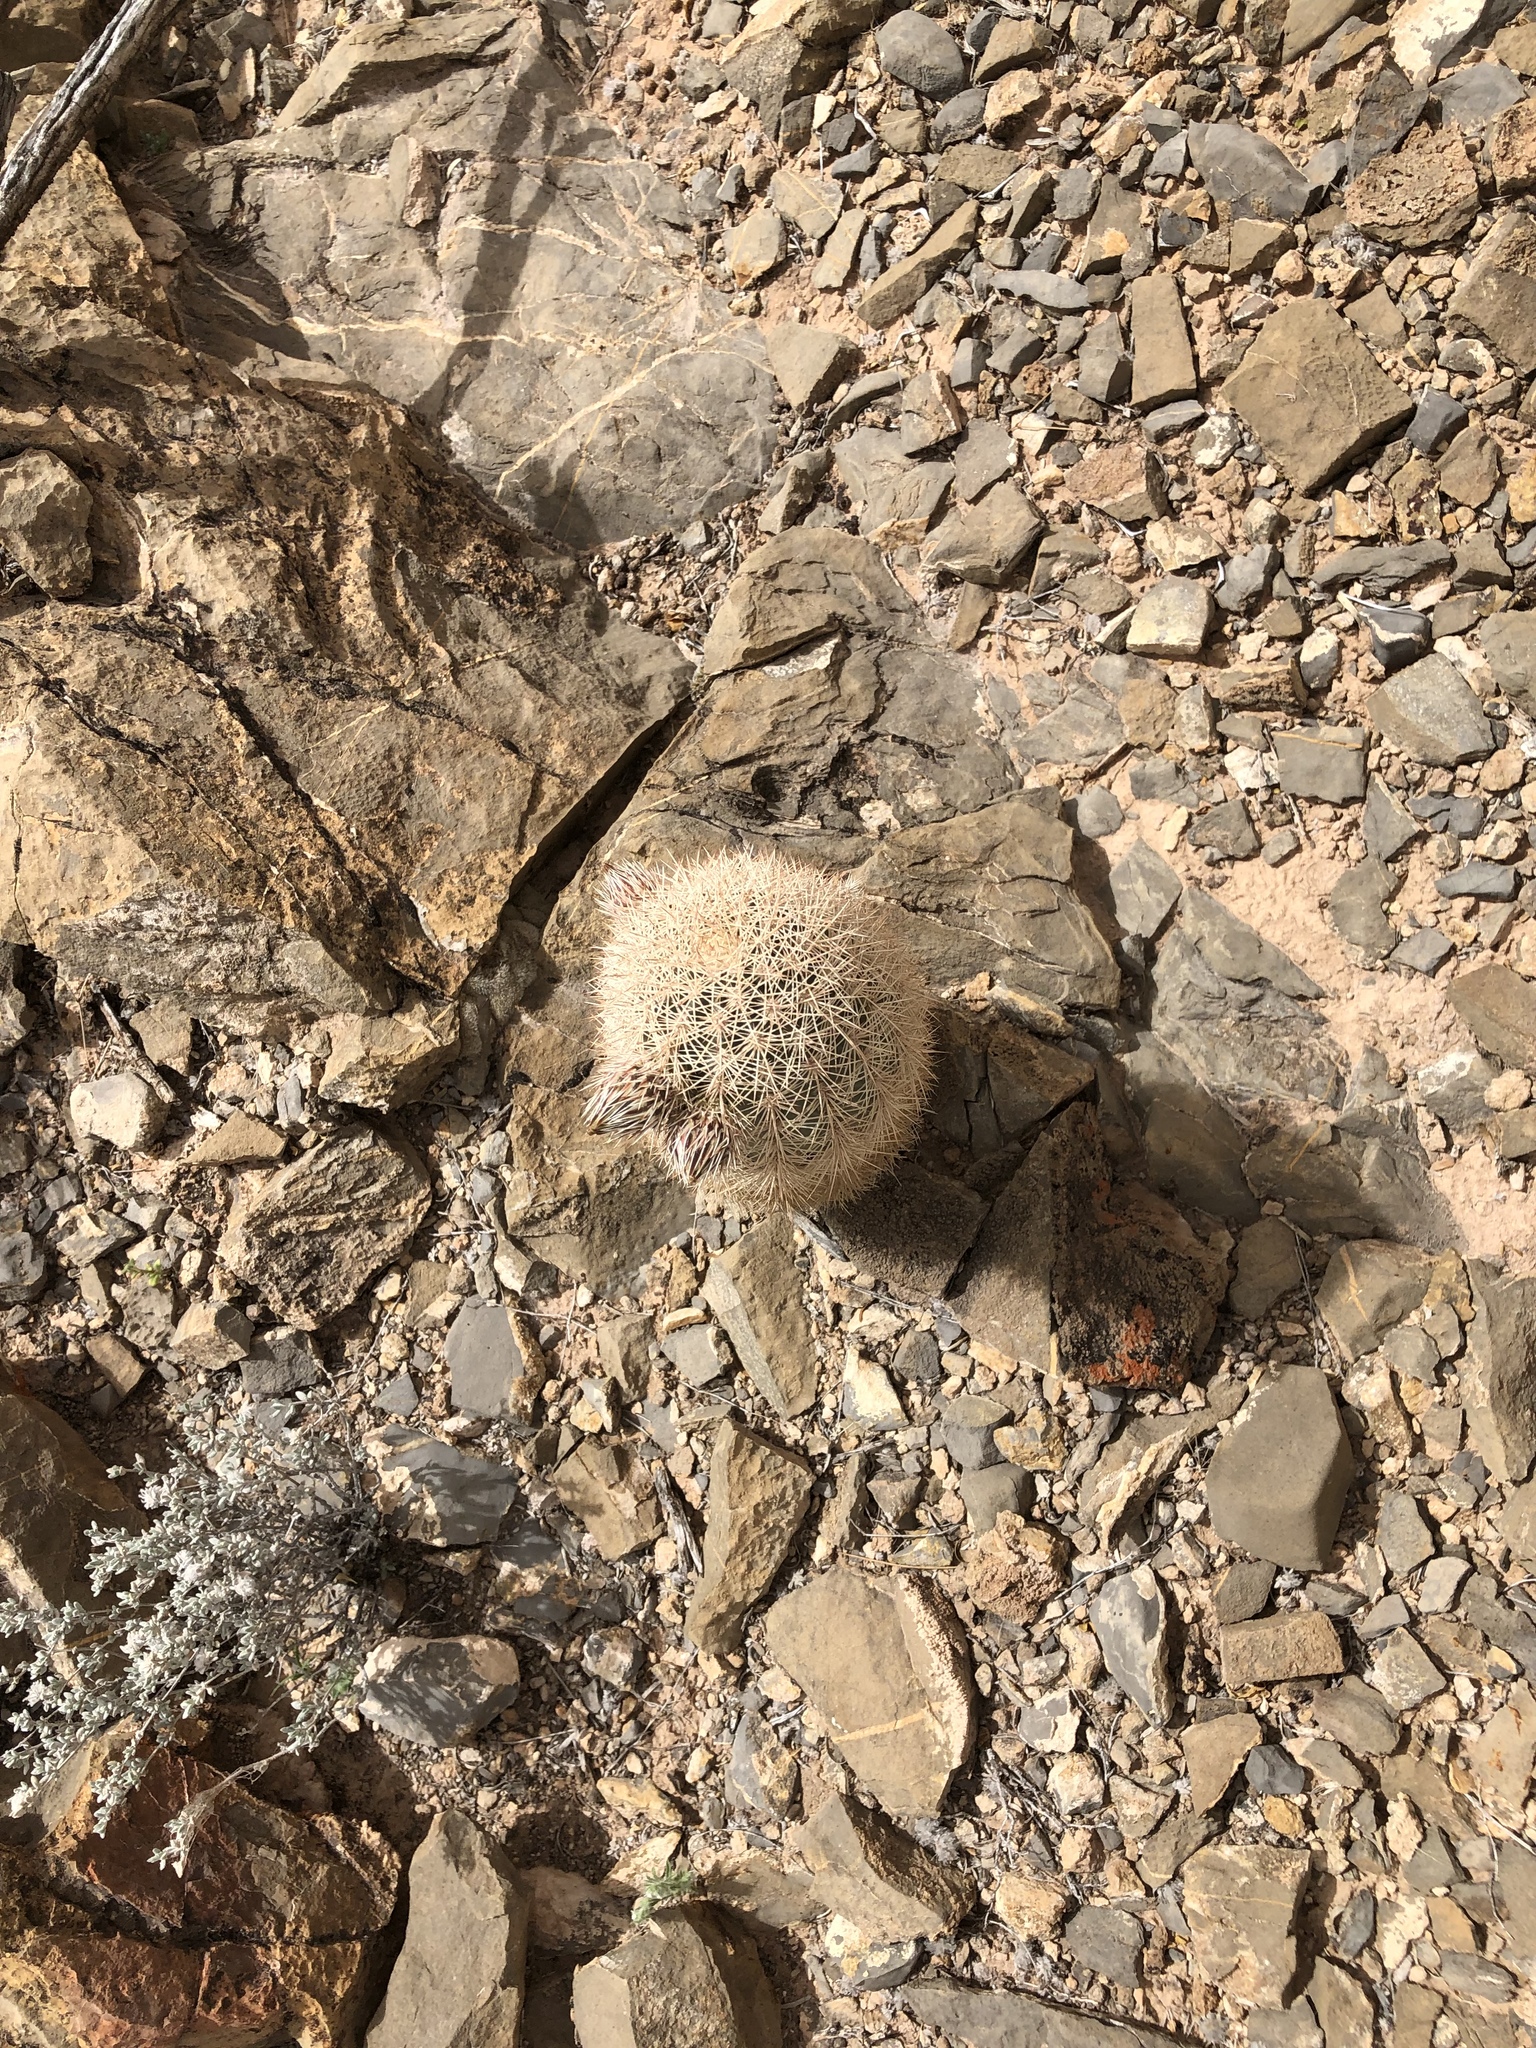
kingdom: Plantae
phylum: Tracheophyta
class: Magnoliopsida
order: Caryophyllales
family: Cactaceae
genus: Echinocereus
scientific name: Echinocereus dasyacanthus
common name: Spiny hedgehog cactus
